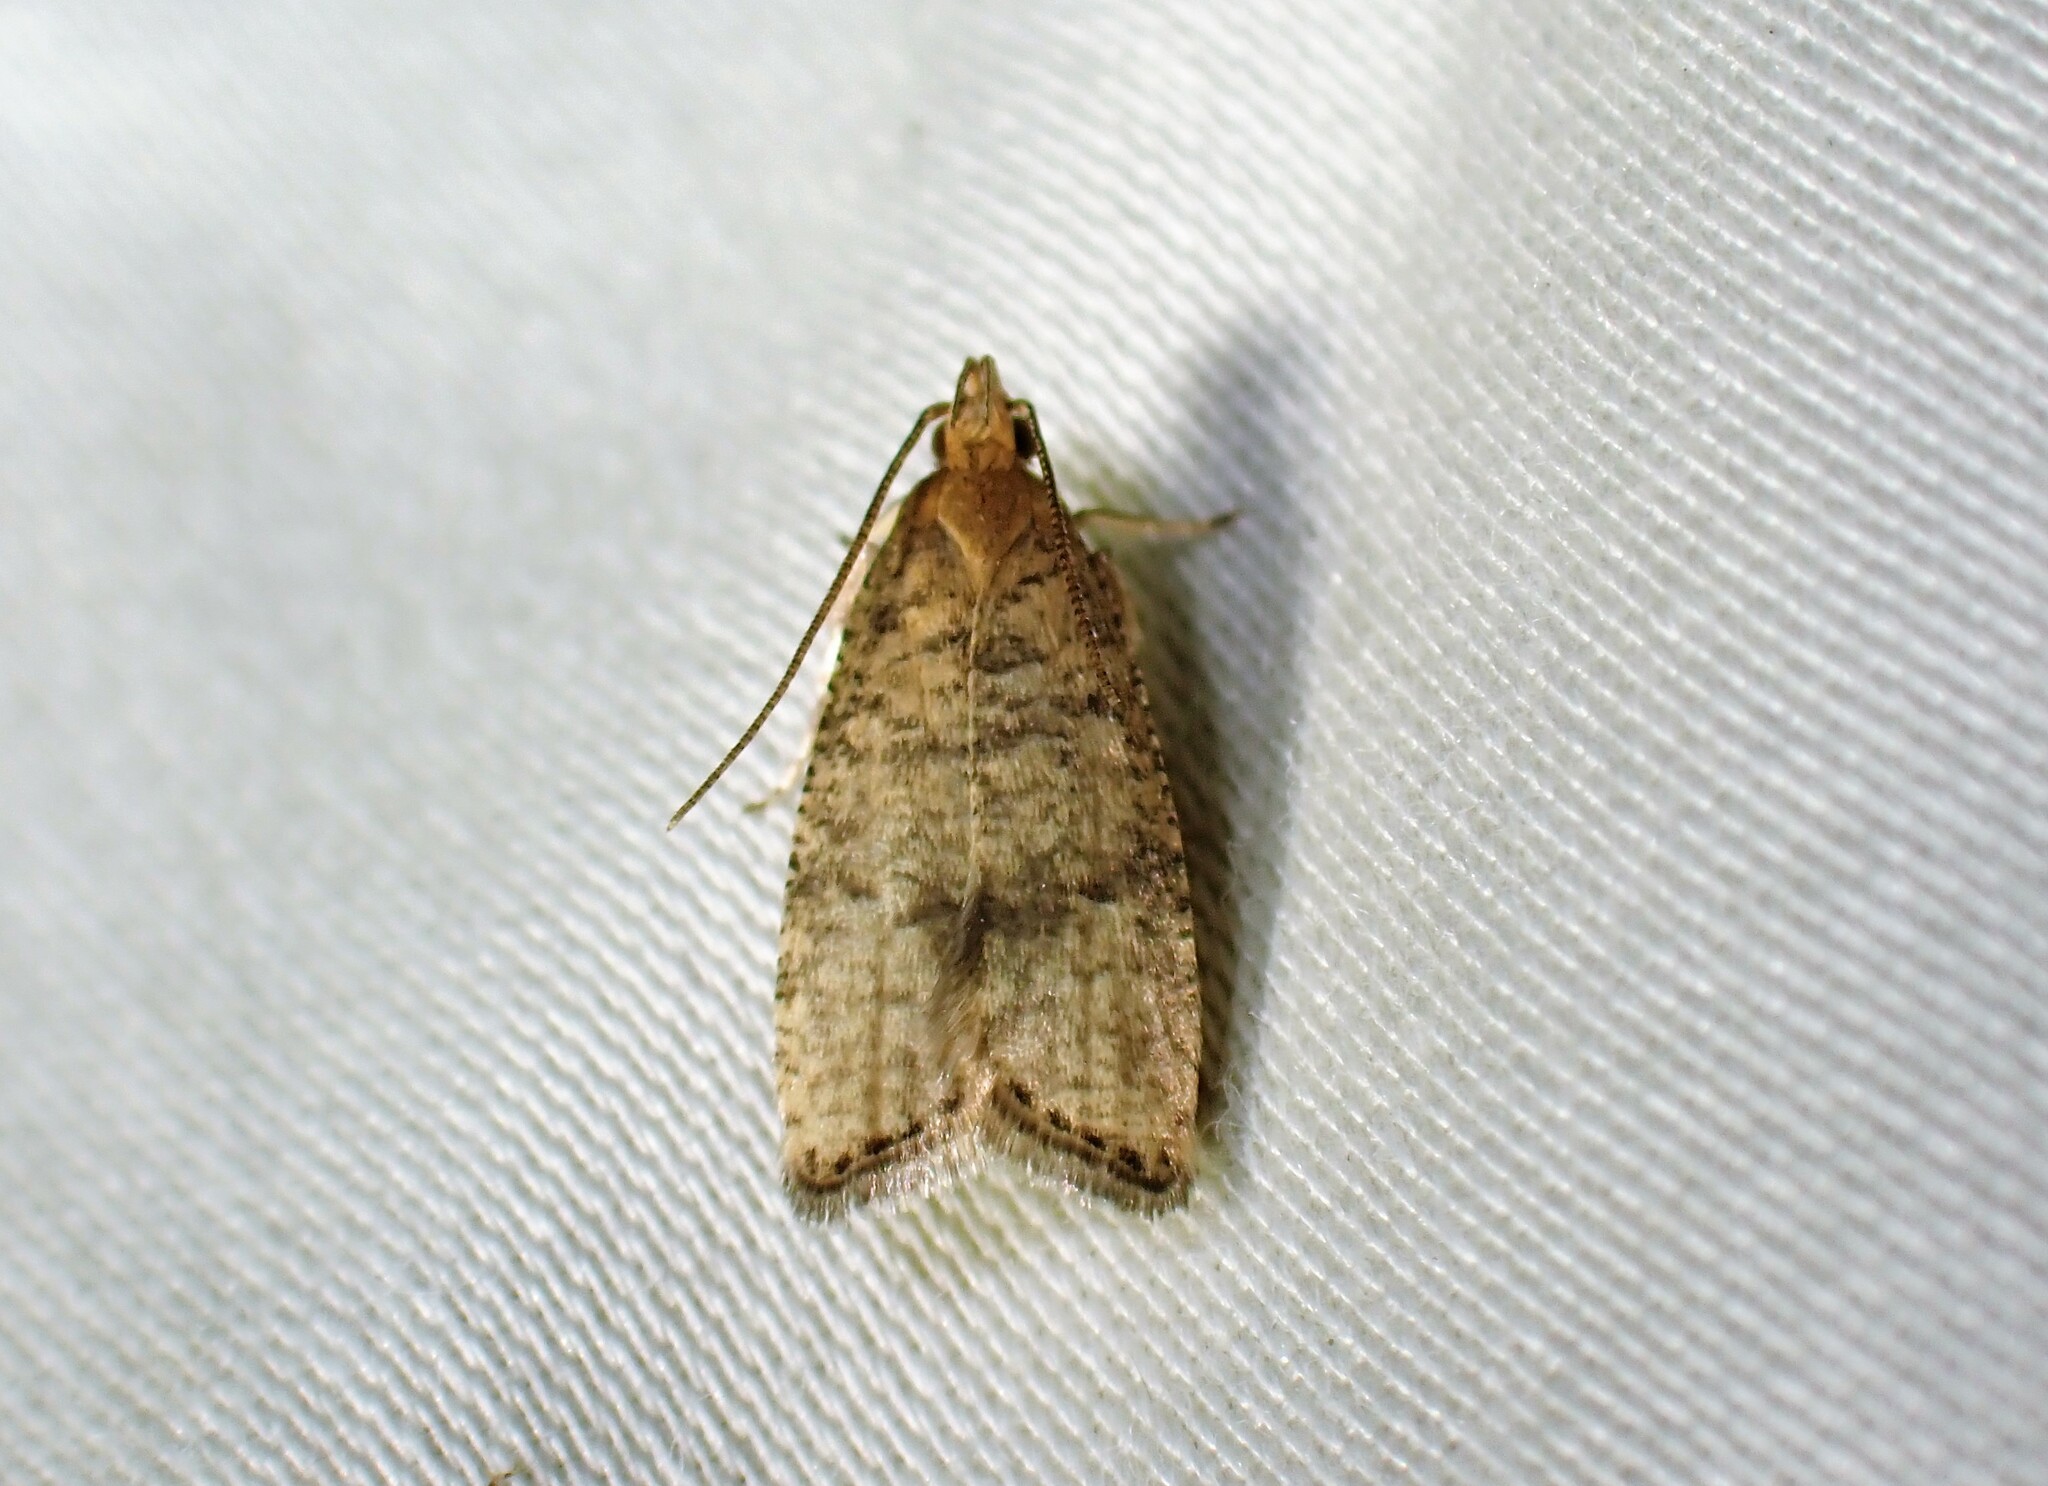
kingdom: Animalia
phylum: Arthropoda
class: Insecta
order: Lepidoptera
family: Depressariidae
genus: Psilocorsis
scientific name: Psilocorsis quercicella
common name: Oak leaftier moth
